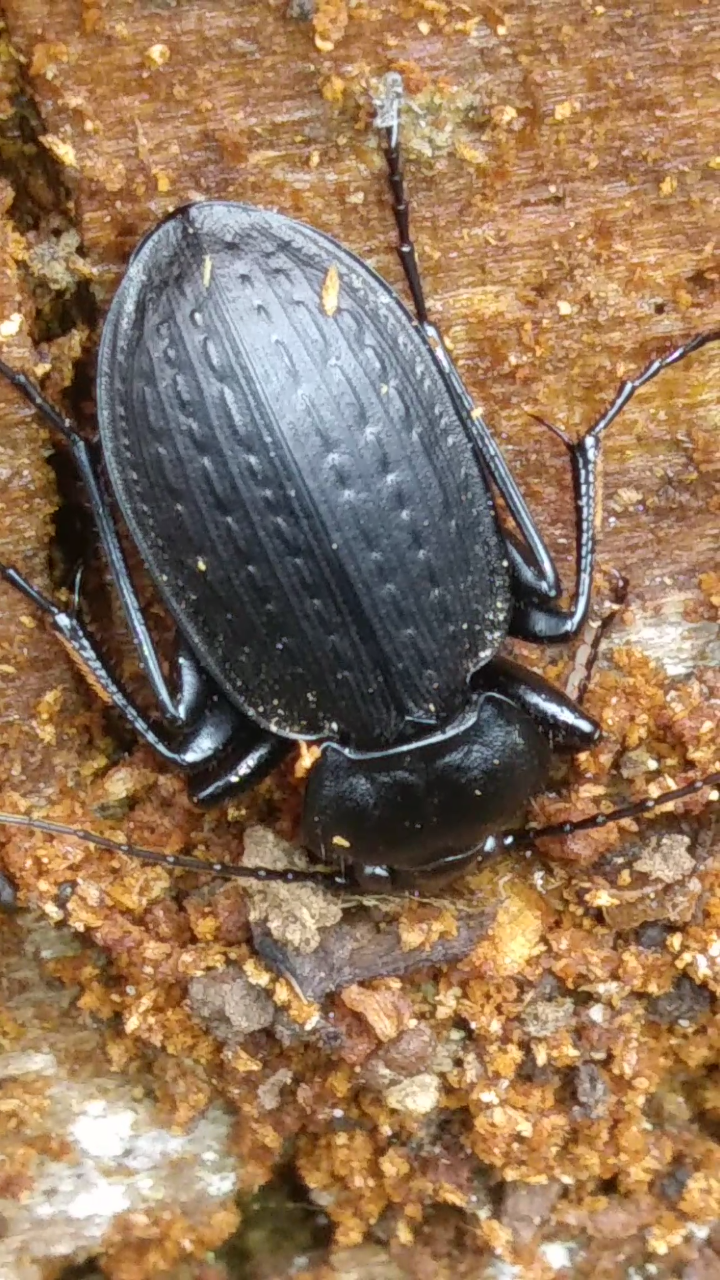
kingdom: Animalia
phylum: Arthropoda
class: Insecta
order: Coleoptera
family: Carabidae
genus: Carabus
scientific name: Carabus vinctus
